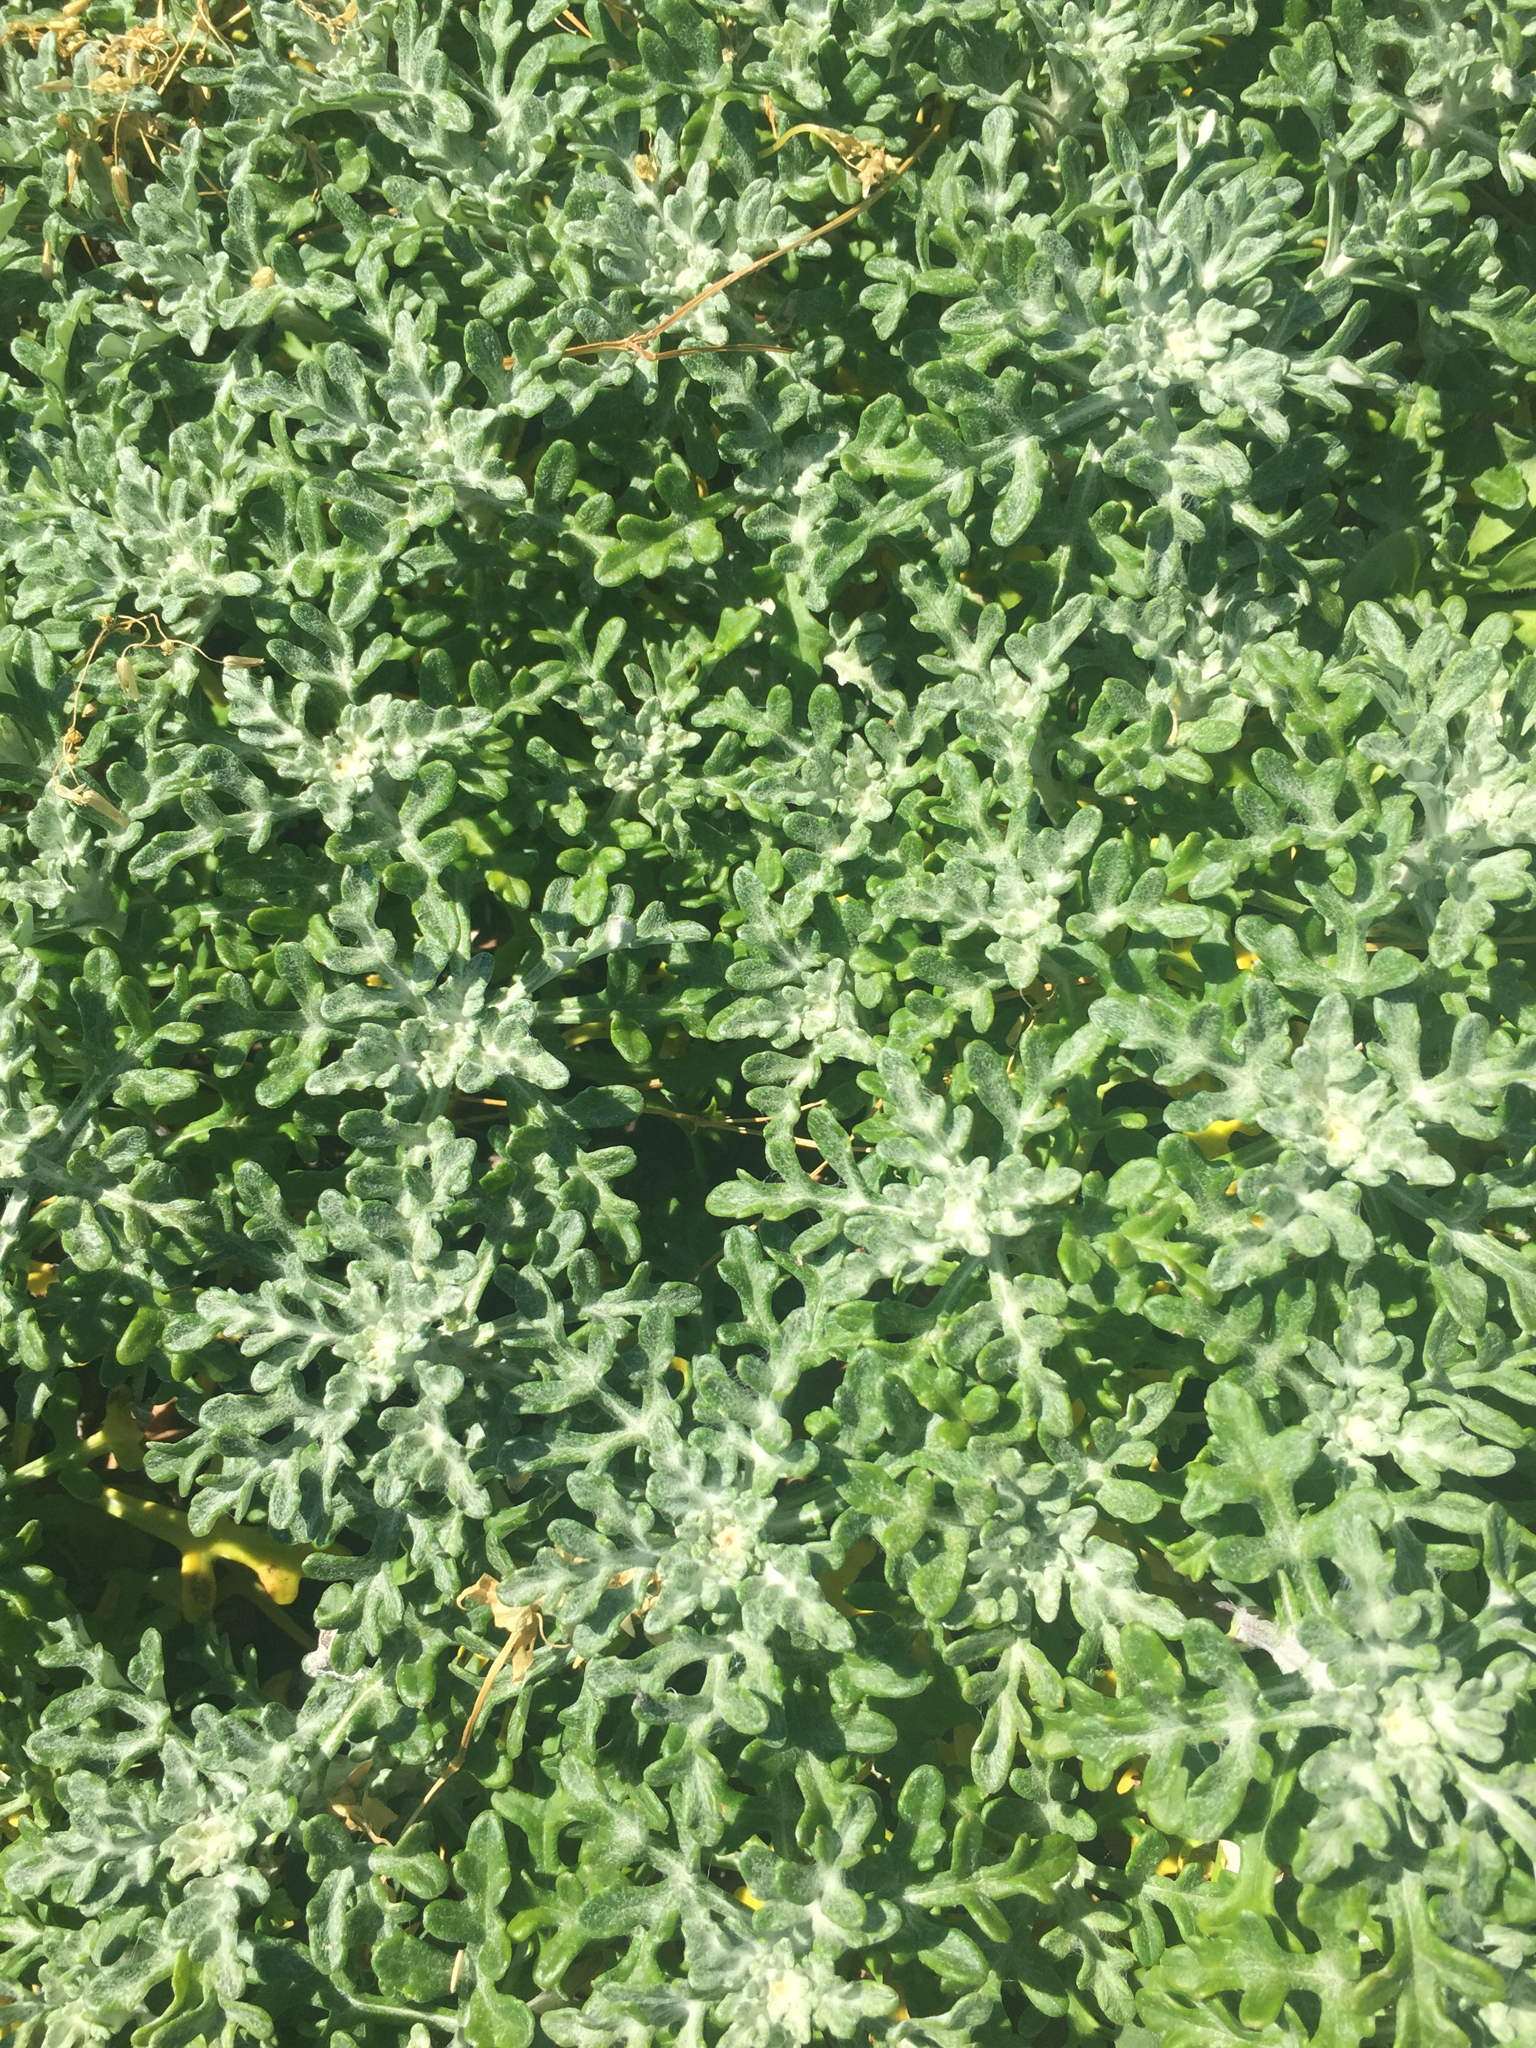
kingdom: Plantae
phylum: Tracheophyta
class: Magnoliopsida
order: Asterales
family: Asteraceae
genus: Eriophyllum
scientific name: Eriophyllum staechadifolium
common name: Lizardtail
